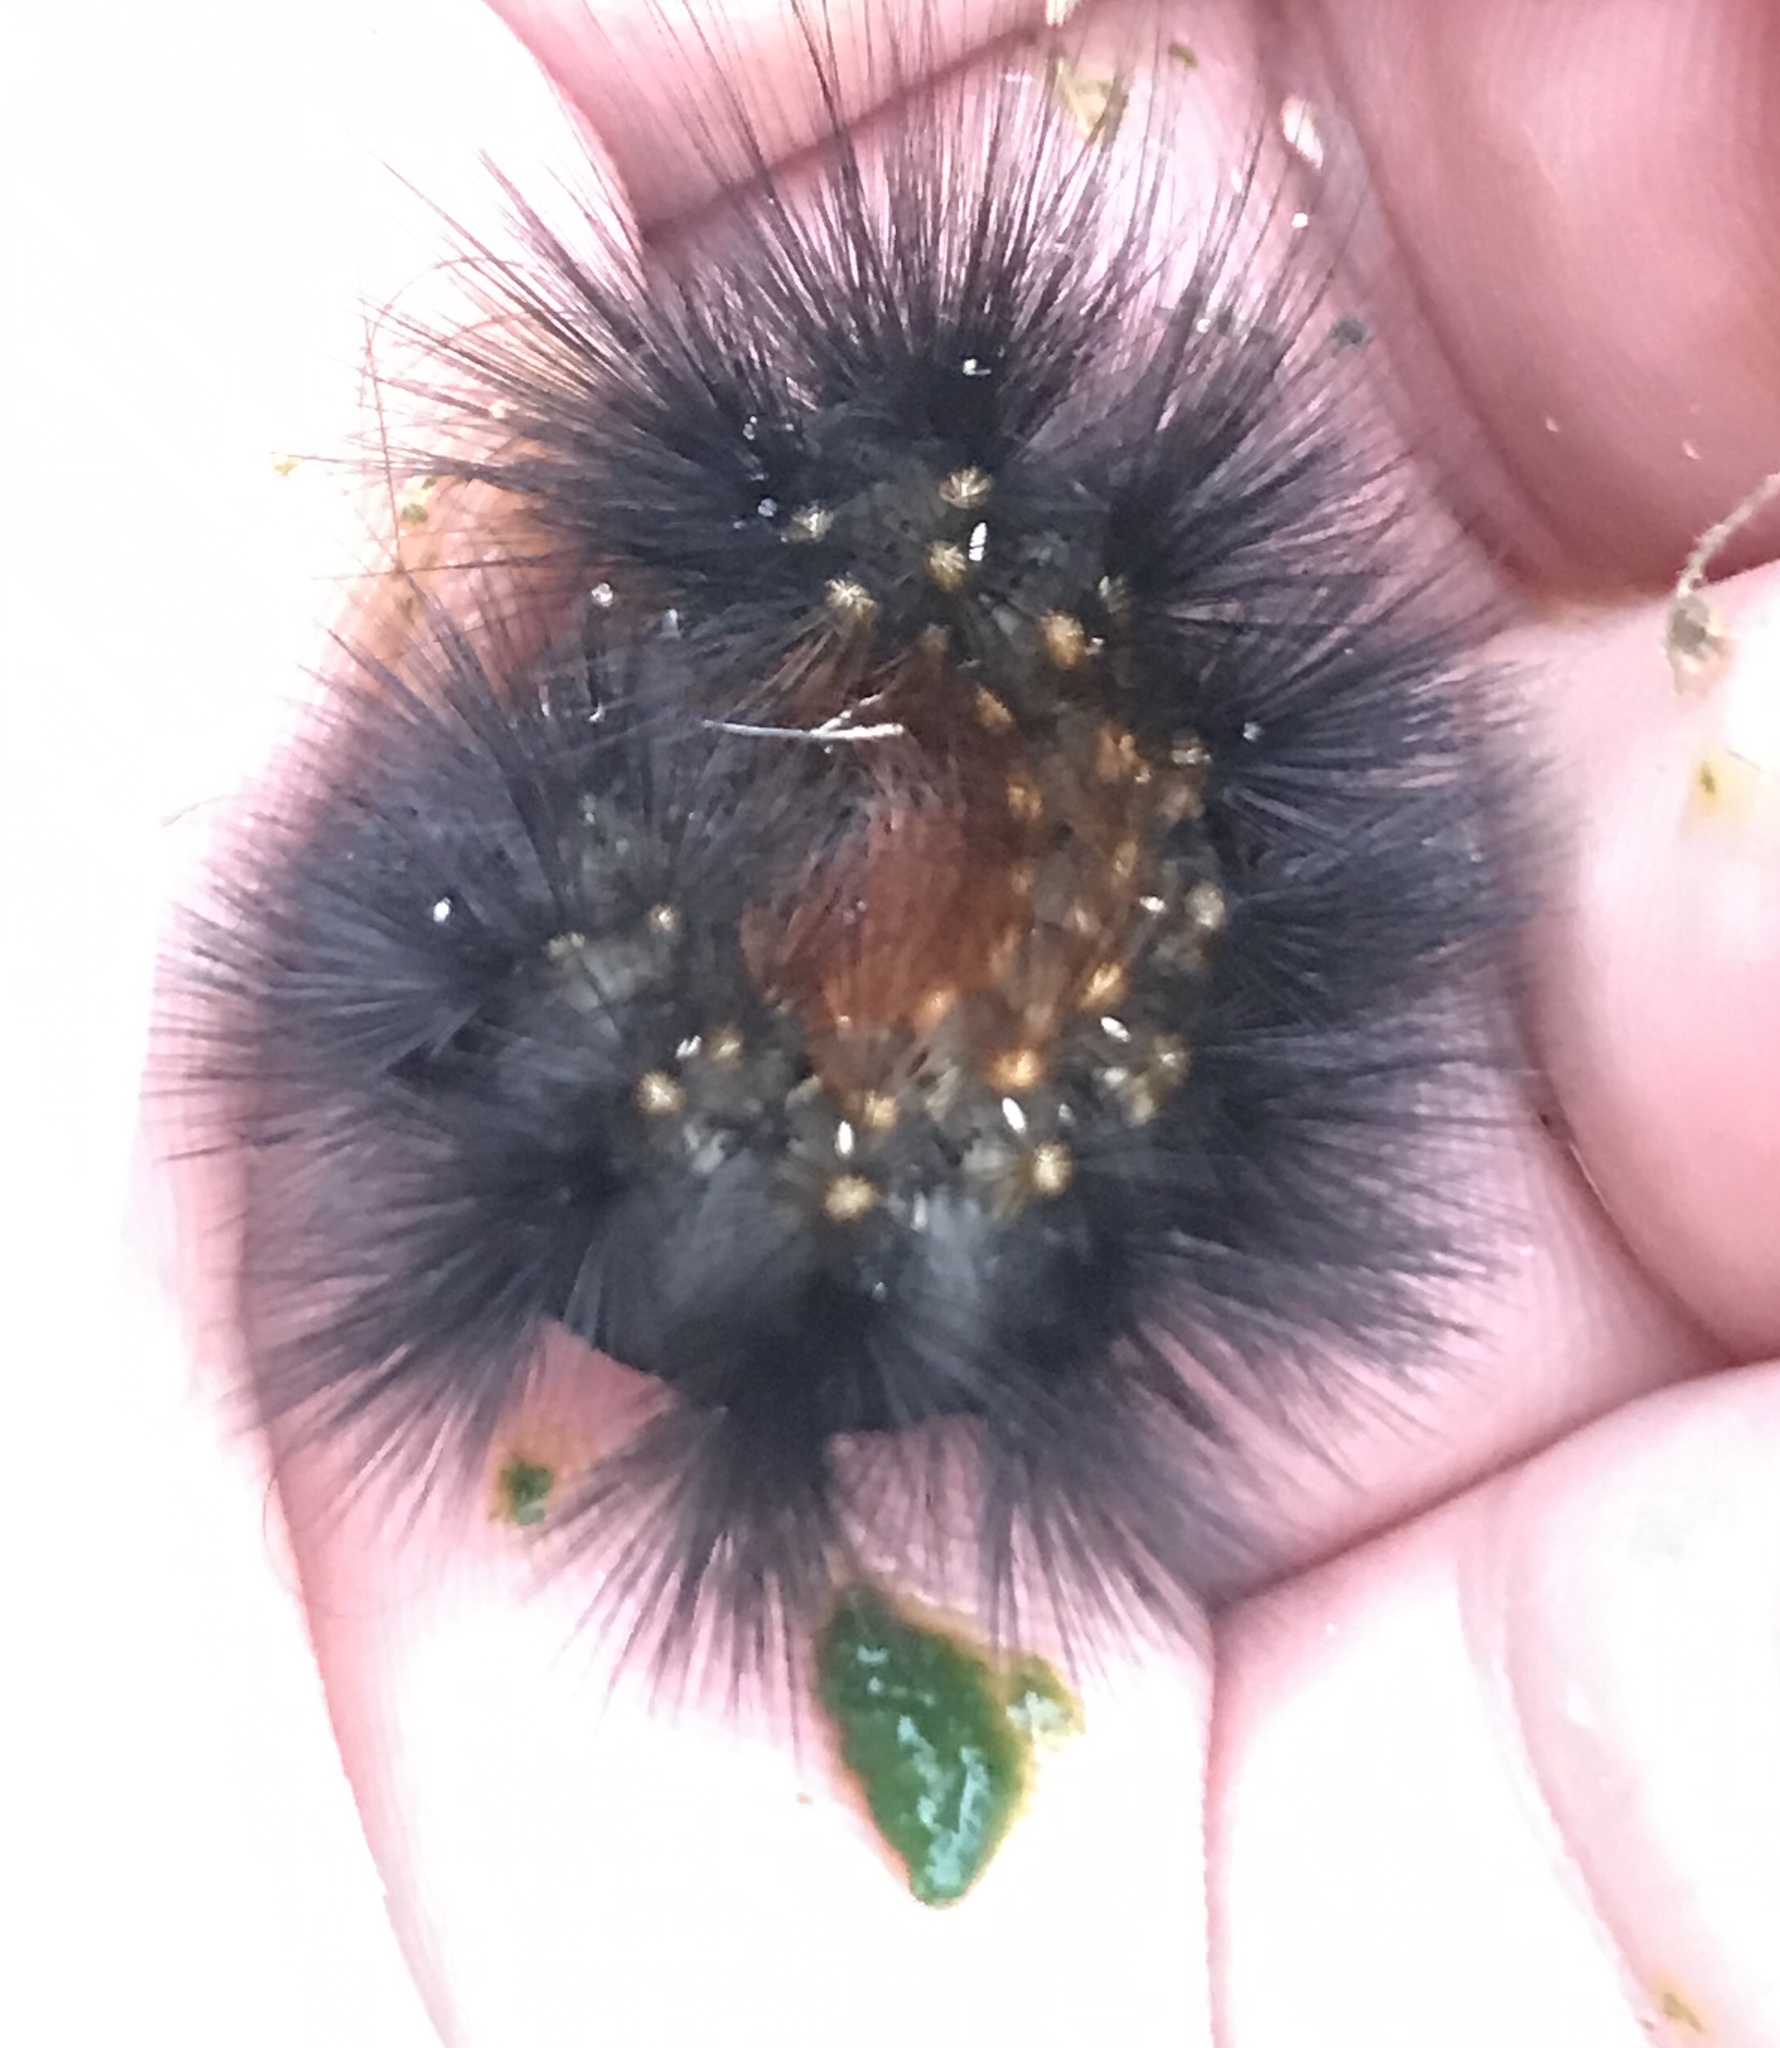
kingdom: Animalia
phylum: Arthropoda
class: Insecta
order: Lepidoptera
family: Erebidae
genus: Estigmene
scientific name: Estigmene acrea
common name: Salt marsh moth
